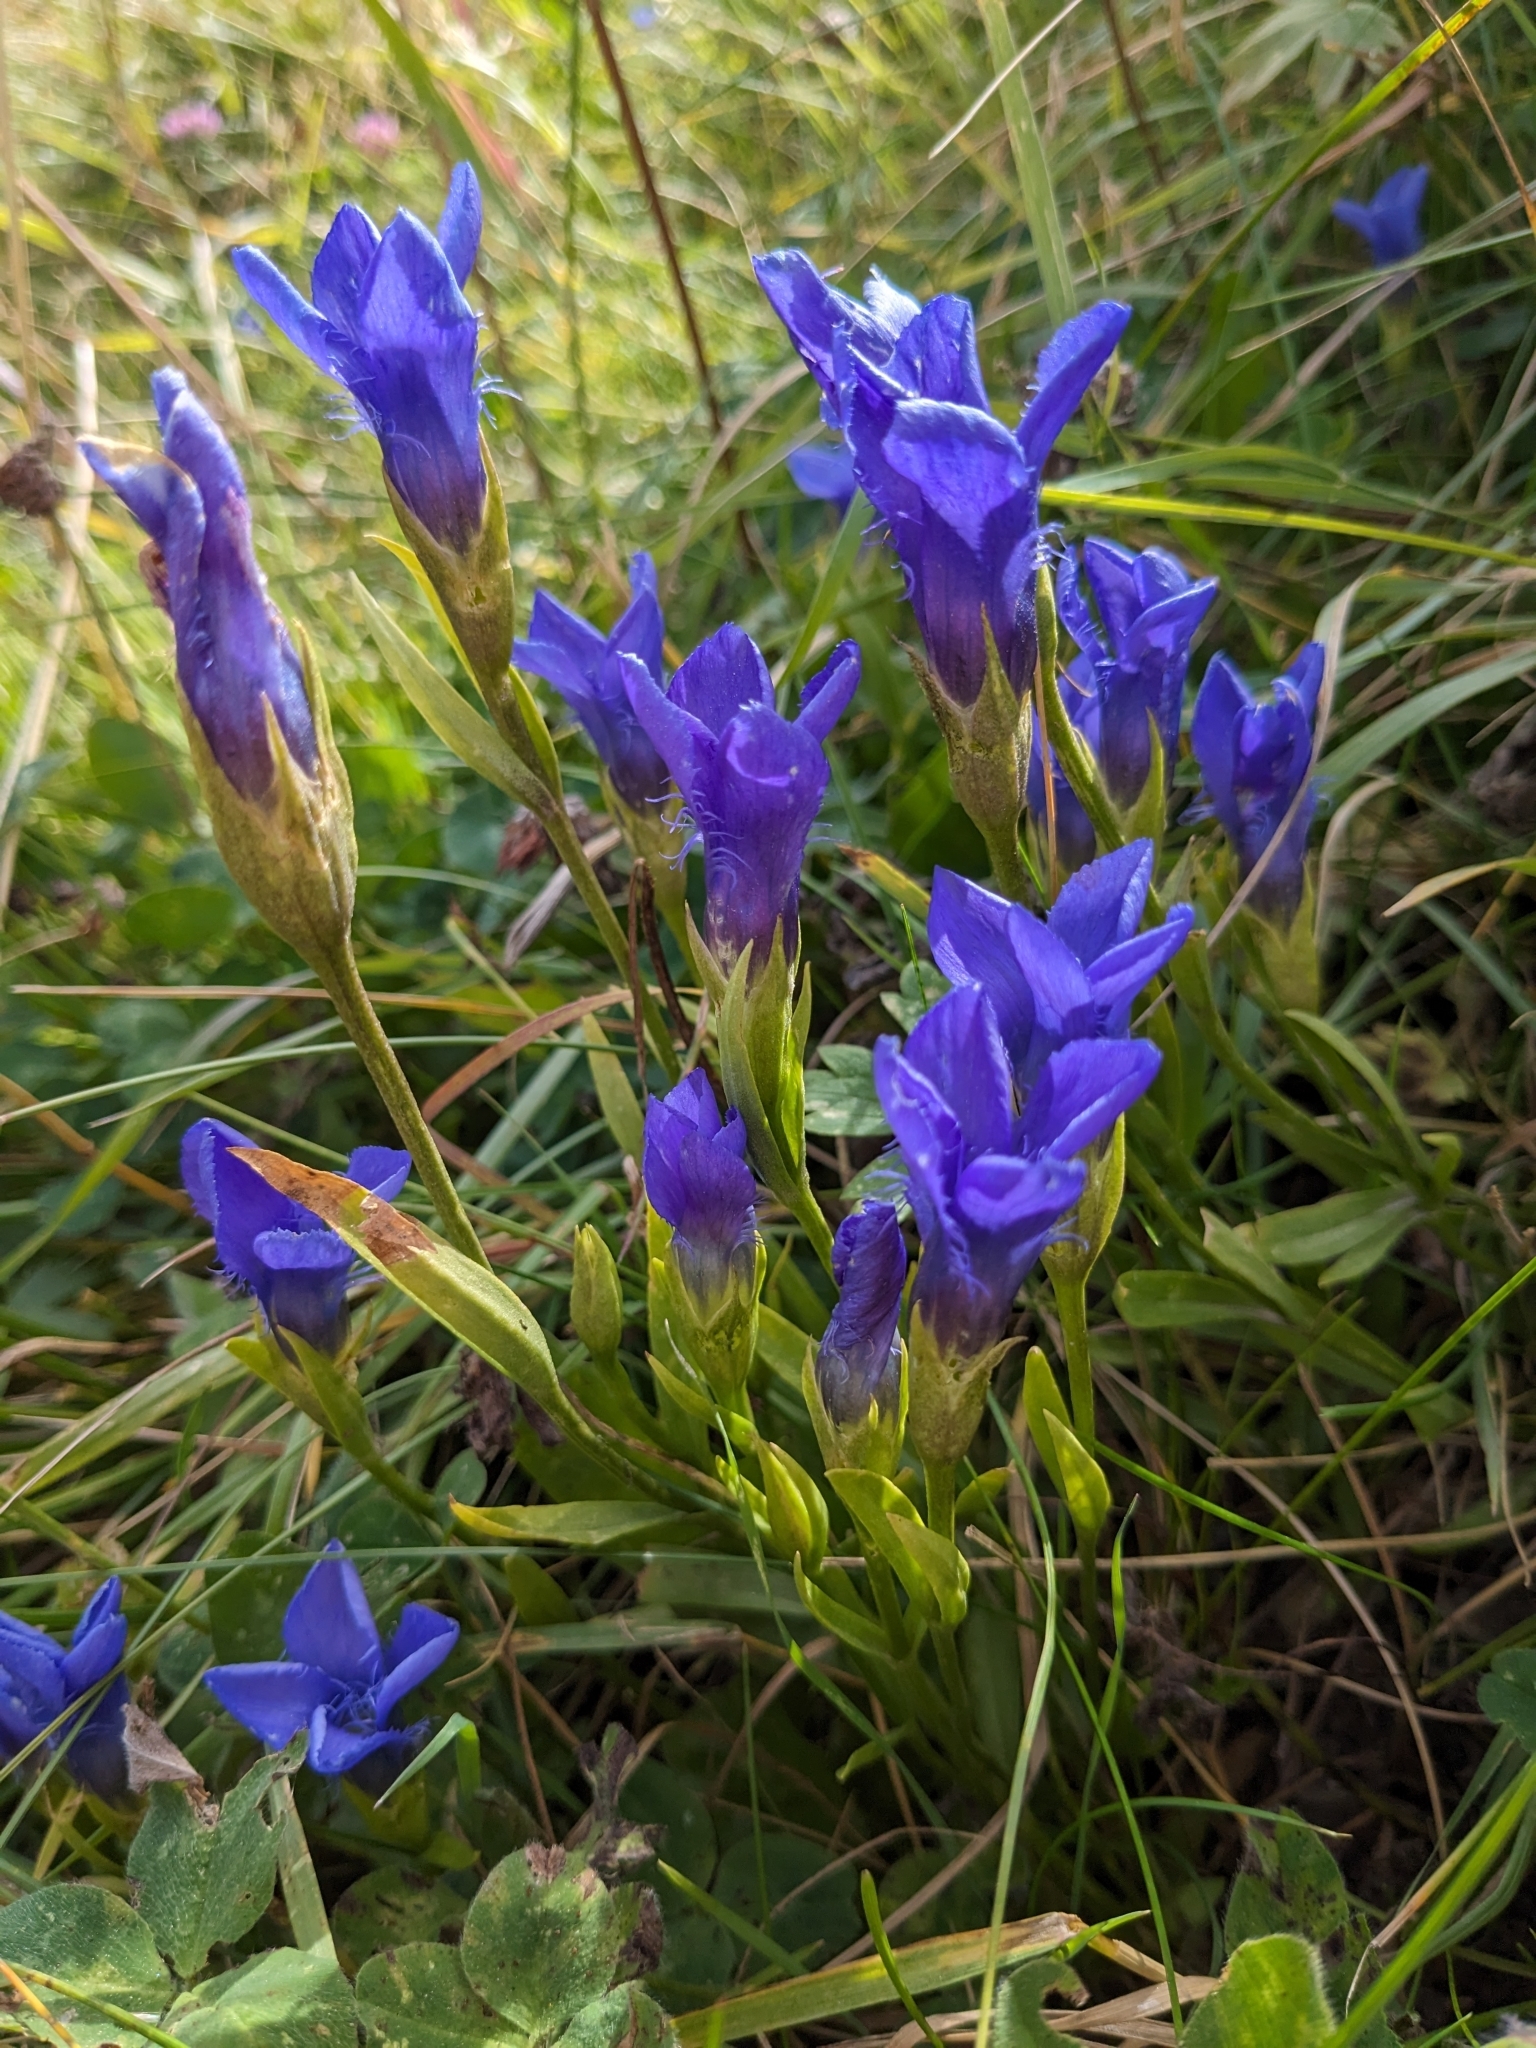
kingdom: Plantae
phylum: Tracheophyta
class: Magnoliopsida
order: Gentianales
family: Gentianaceae
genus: Gentianopsis
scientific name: Gentianopsis ciliata
